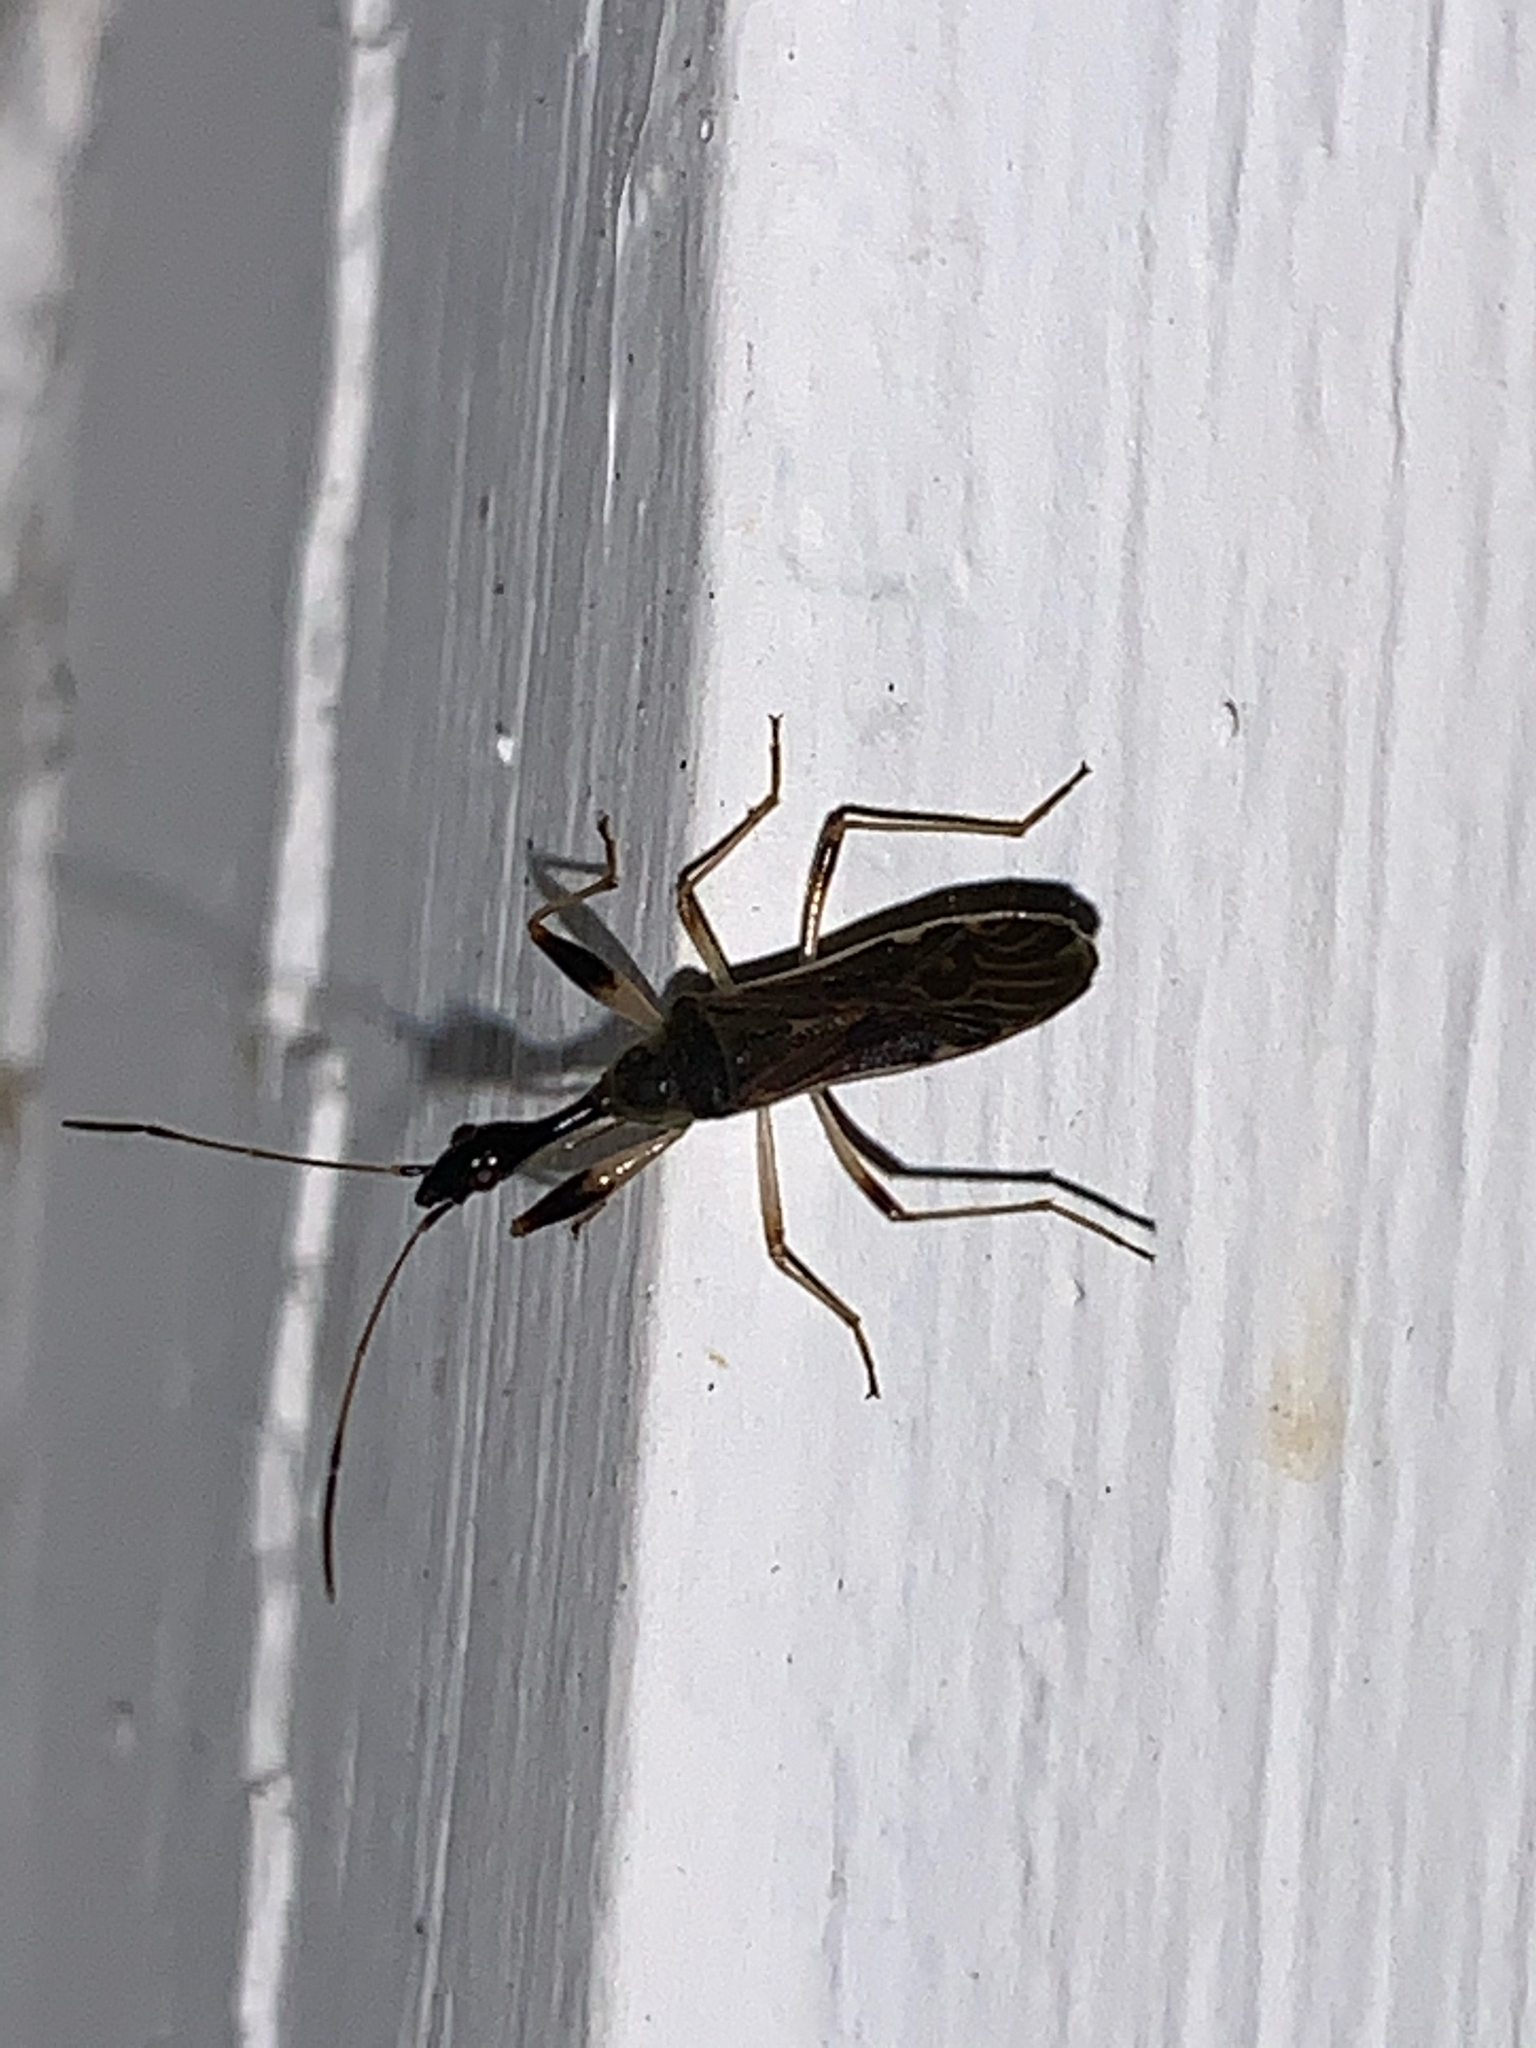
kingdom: Animalia
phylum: Arthropoda
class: Insecta
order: Hemiptera
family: Rhyparochromidae
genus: Myodocha
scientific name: Myodocha serripes
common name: Long-necked seed bug
